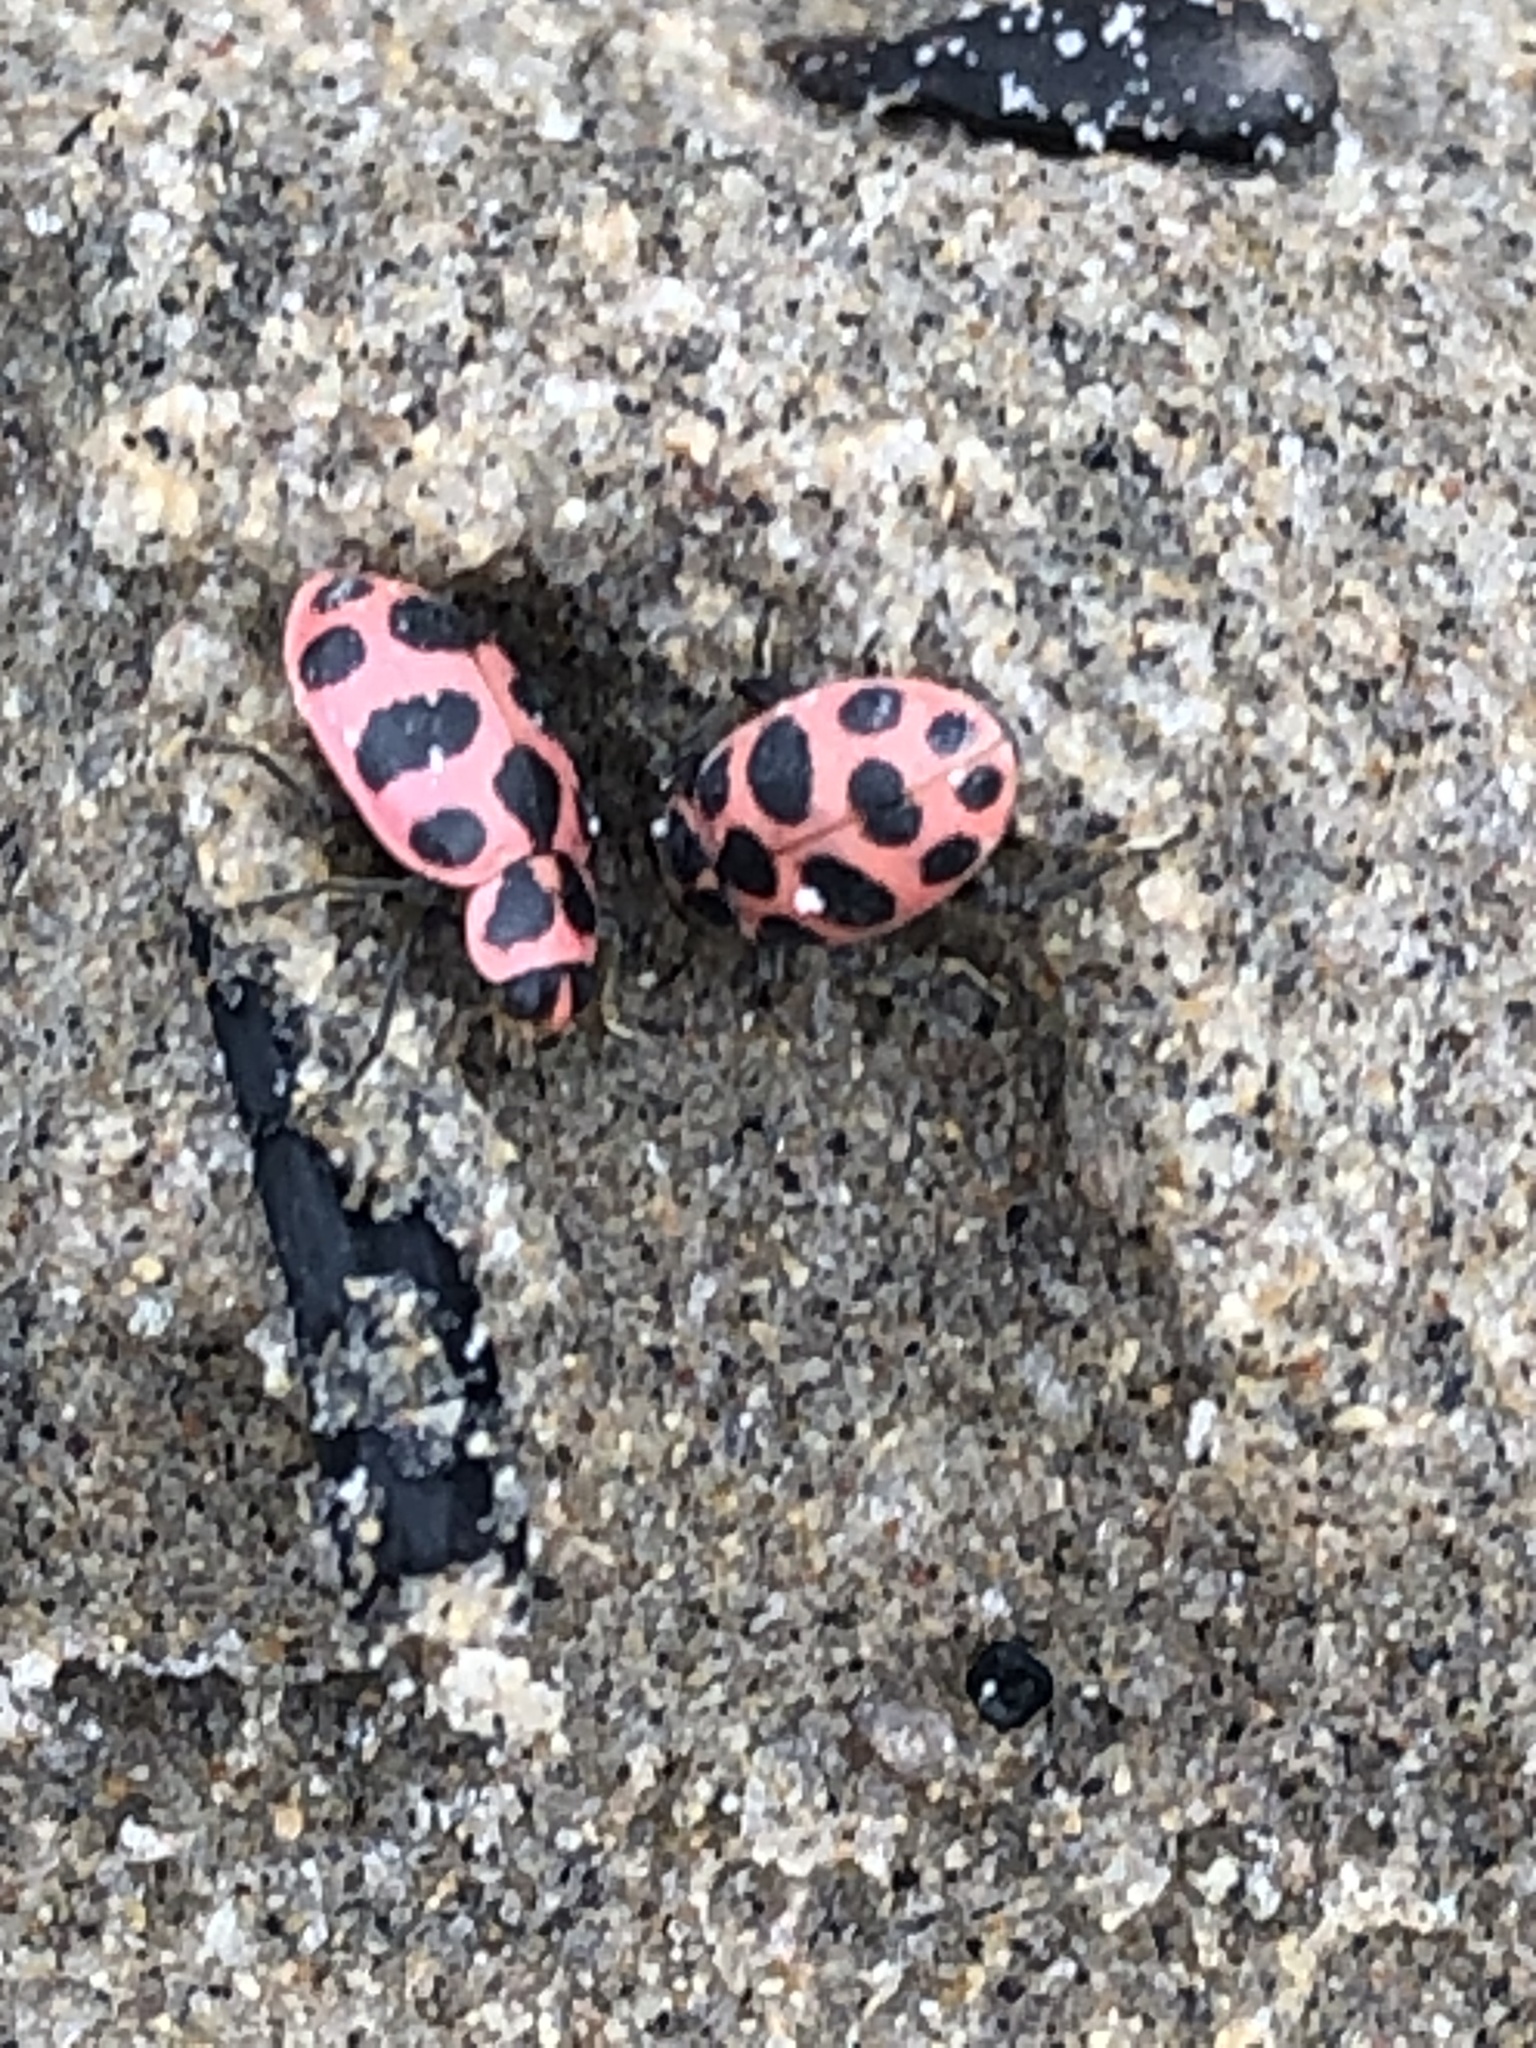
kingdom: Animalia
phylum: Arthropoda
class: Insecta
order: Coleoptera
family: Coccinellidae
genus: Coleomegilla
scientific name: Coleomegilla maculata
